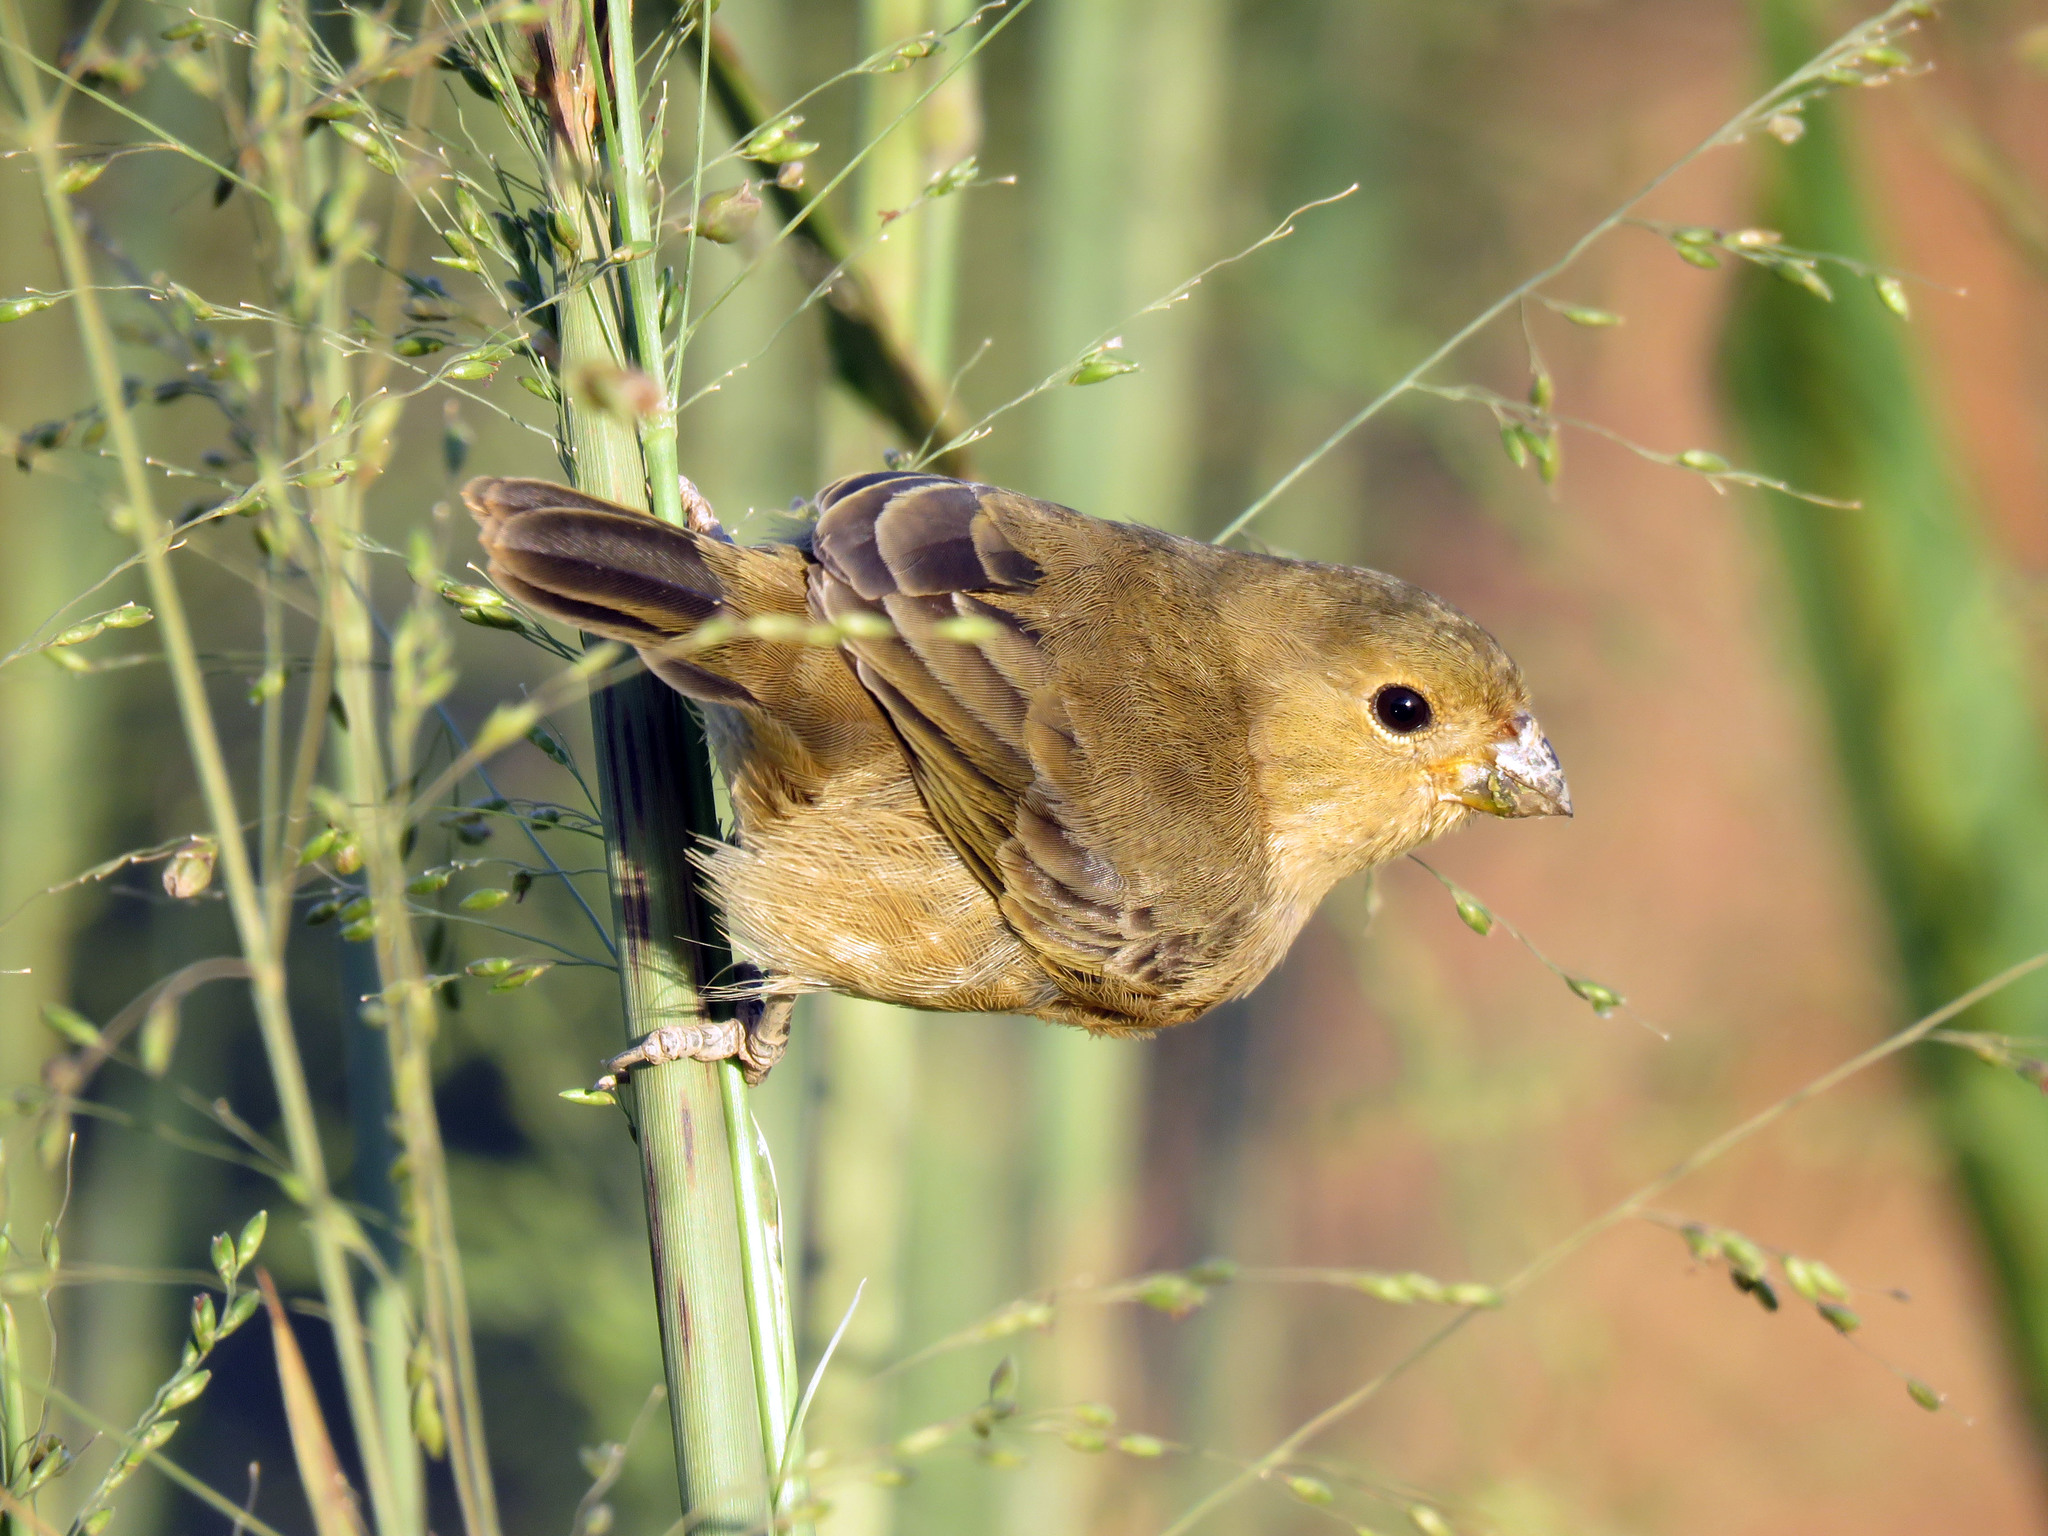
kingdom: Animalia
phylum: Chordata
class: Aves
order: Passeriformes
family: Thraupidae
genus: Sporophila
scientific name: Sporophila castaneiventris
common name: Chestnut-bellied seedeater
